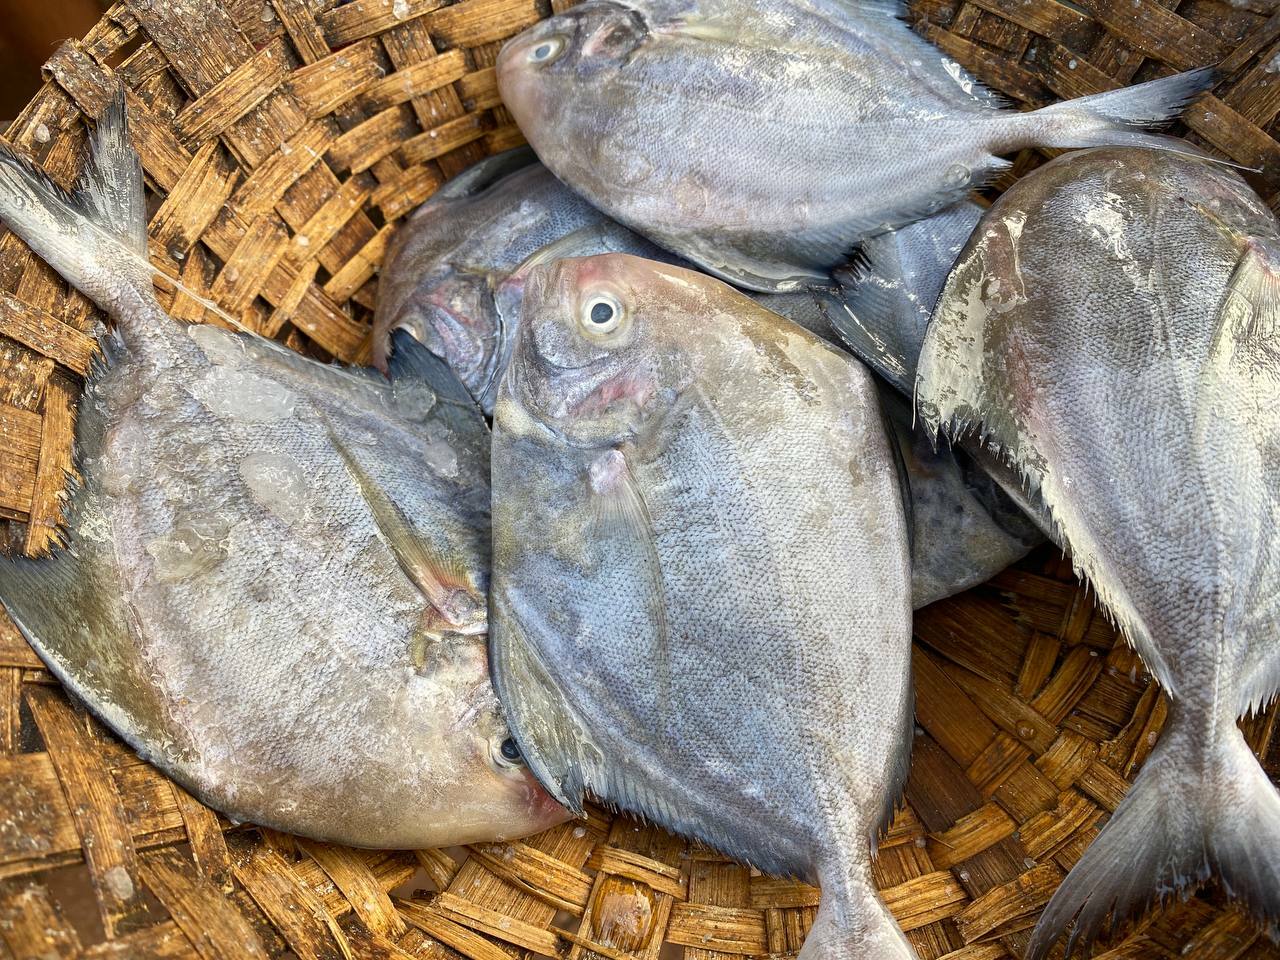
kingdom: Animalia
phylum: Chordata
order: Perciformes
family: Carangidae
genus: Parastromateus
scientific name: Parastromateus niger
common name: Black pomfret
